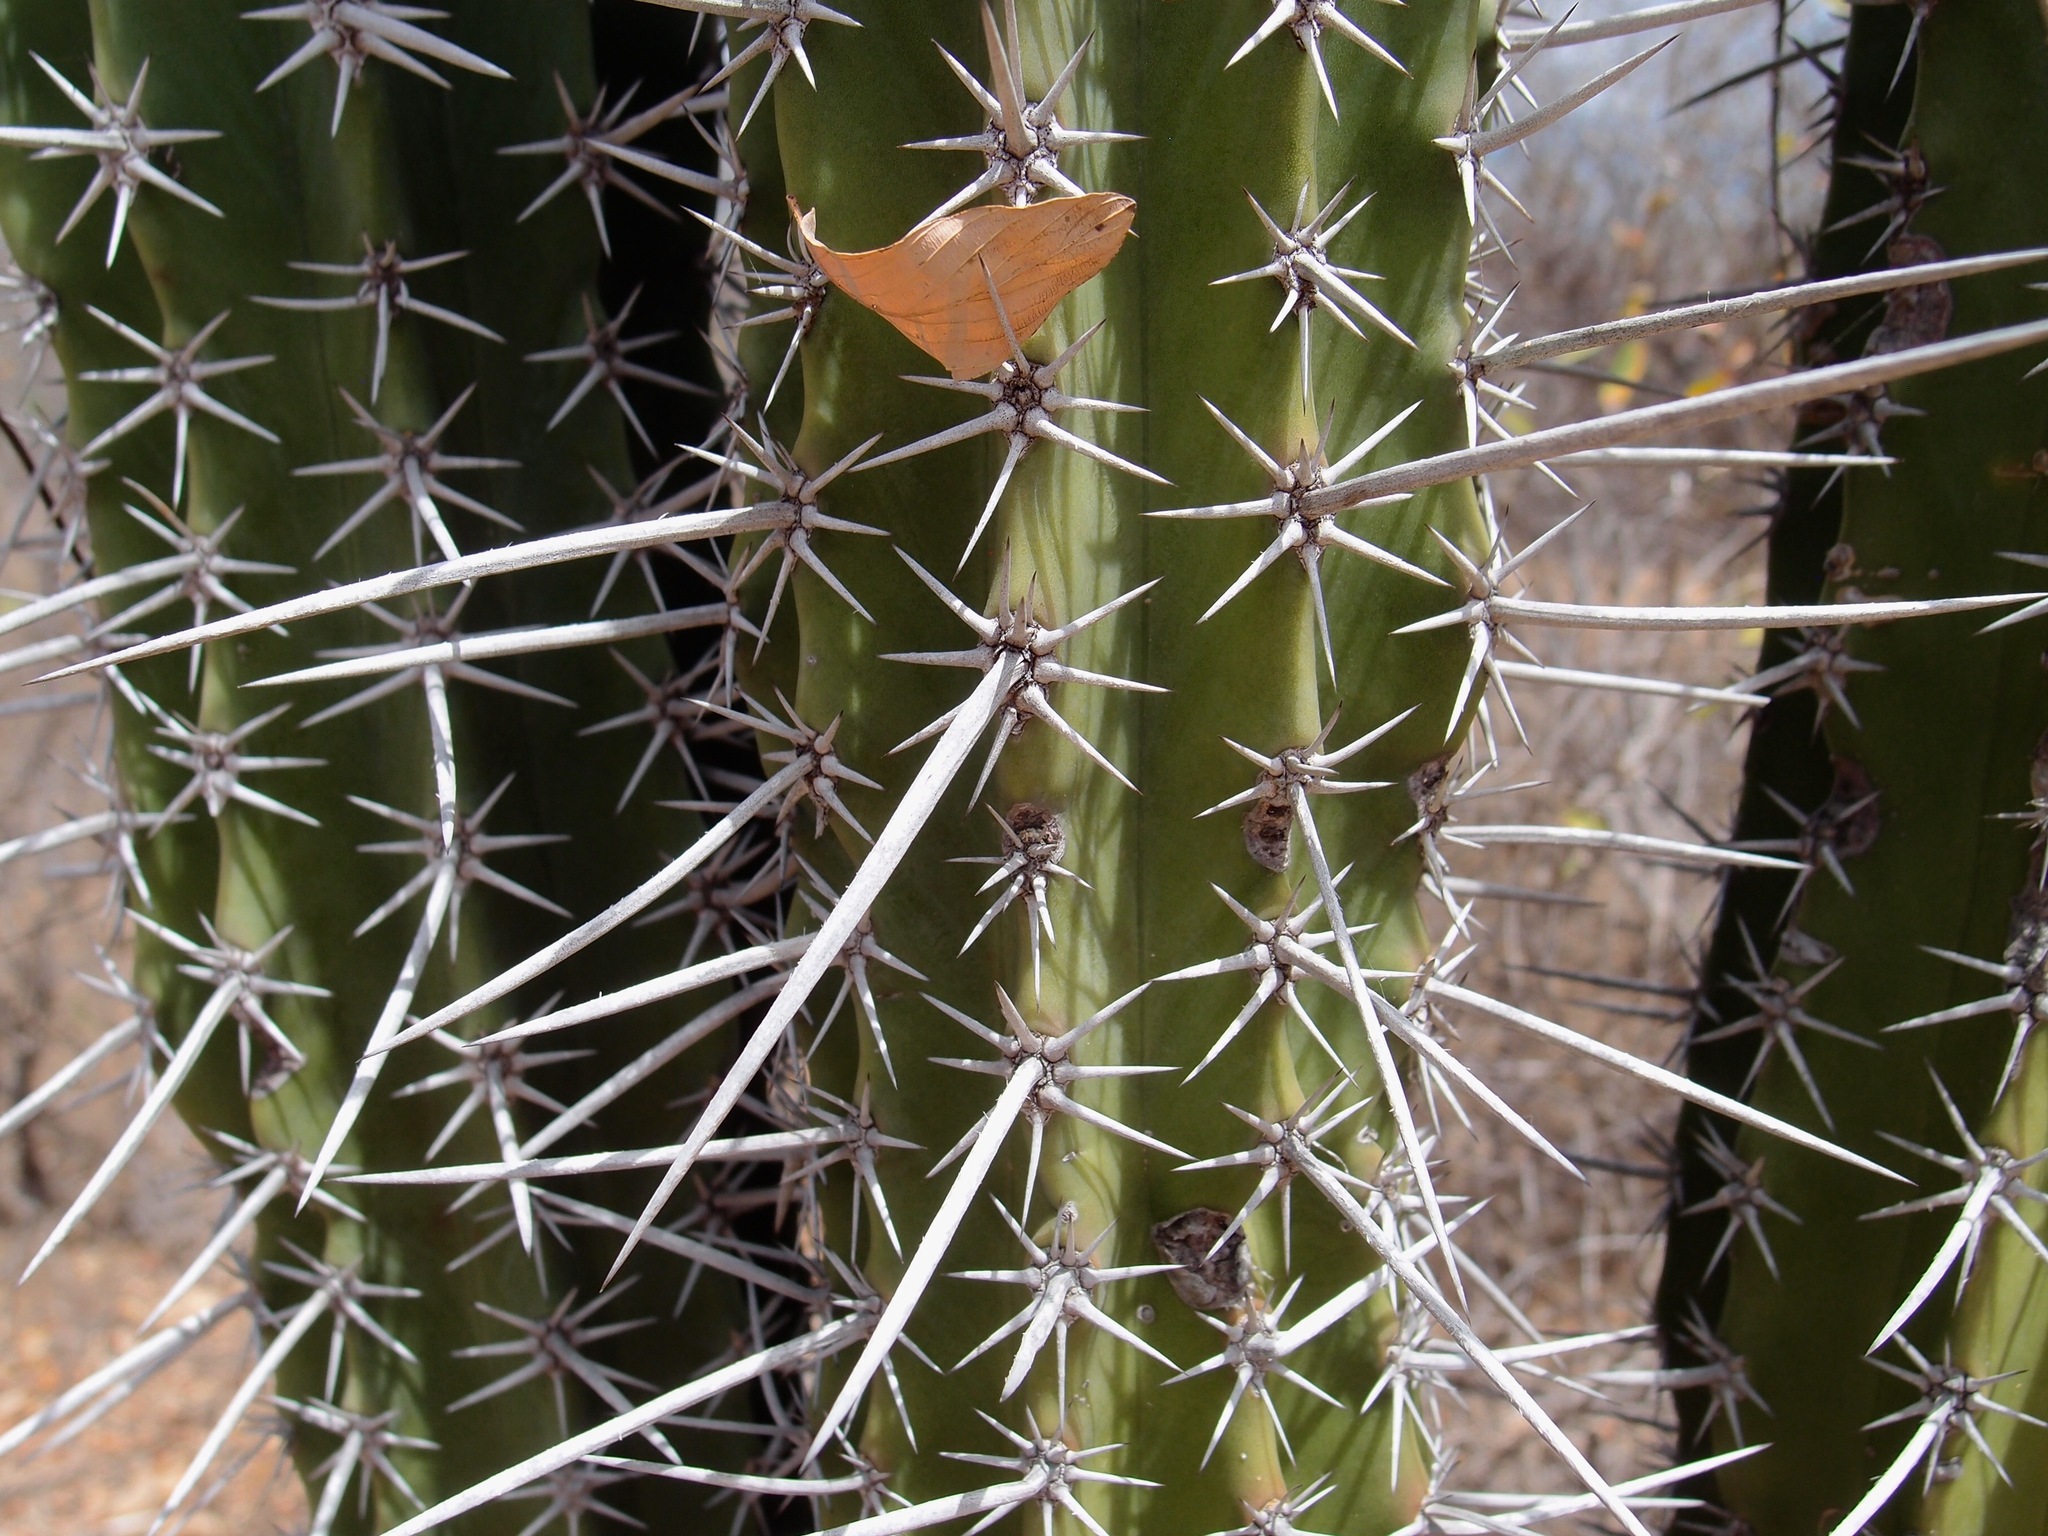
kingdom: Plantae
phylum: Tracheophyta
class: Magnoliopsida
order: Caryophyllales
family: Cactaceae
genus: Pachycereus
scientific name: Pachycereus pecten-aboriginum
